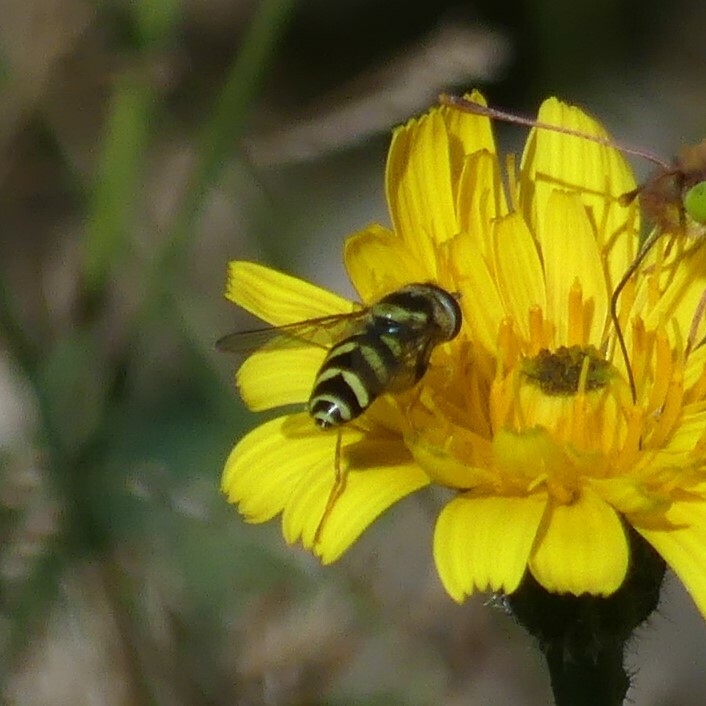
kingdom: Animalia
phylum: Arthropoda
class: Insecta
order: Diptera
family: Syrphidae
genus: Dasysyrphus
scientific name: Dasysyrphus albostriatus
